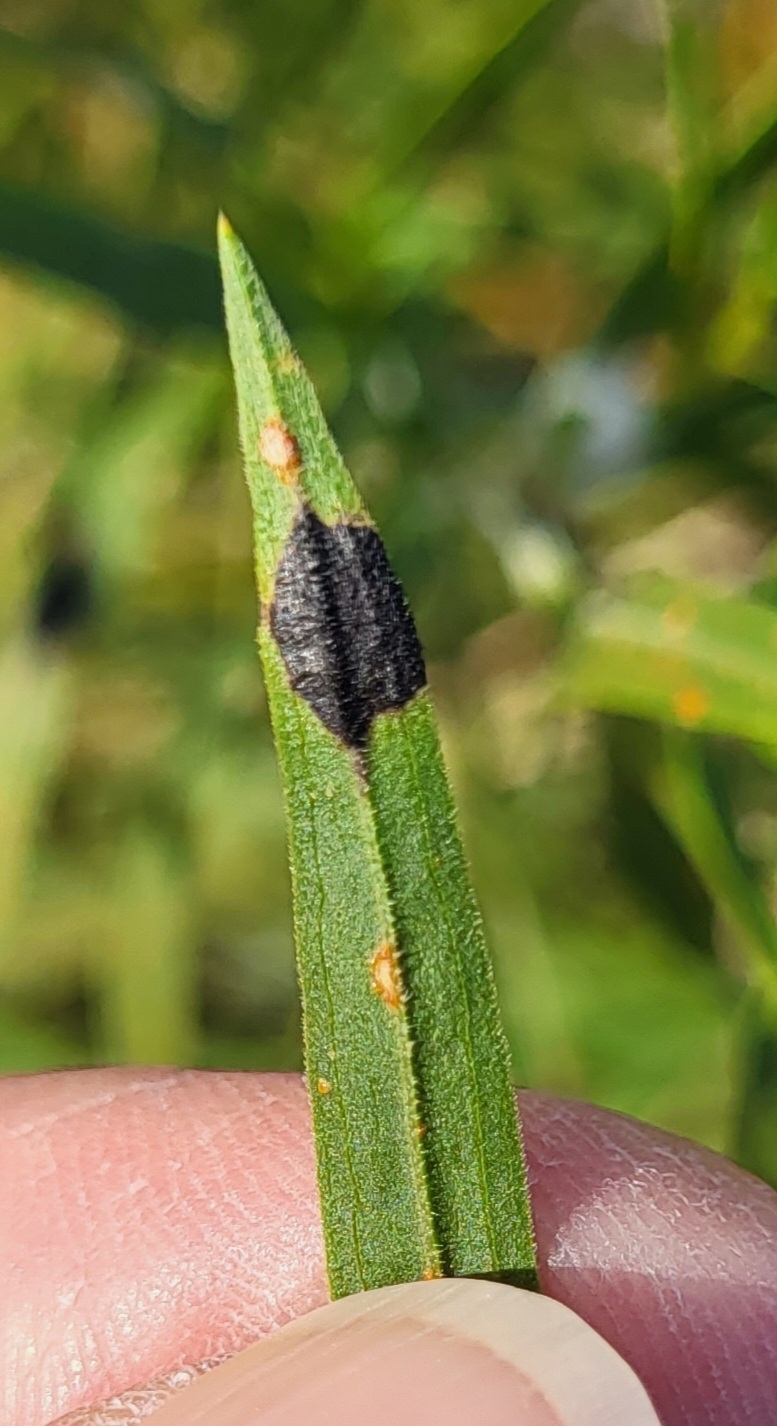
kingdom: Animalia
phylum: Arthropoda
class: Insecta
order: Diptera
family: Cecidomyiidae
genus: Asteromyia
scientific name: Asteromyia euthamiae
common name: Euthamia leaf gall midge
